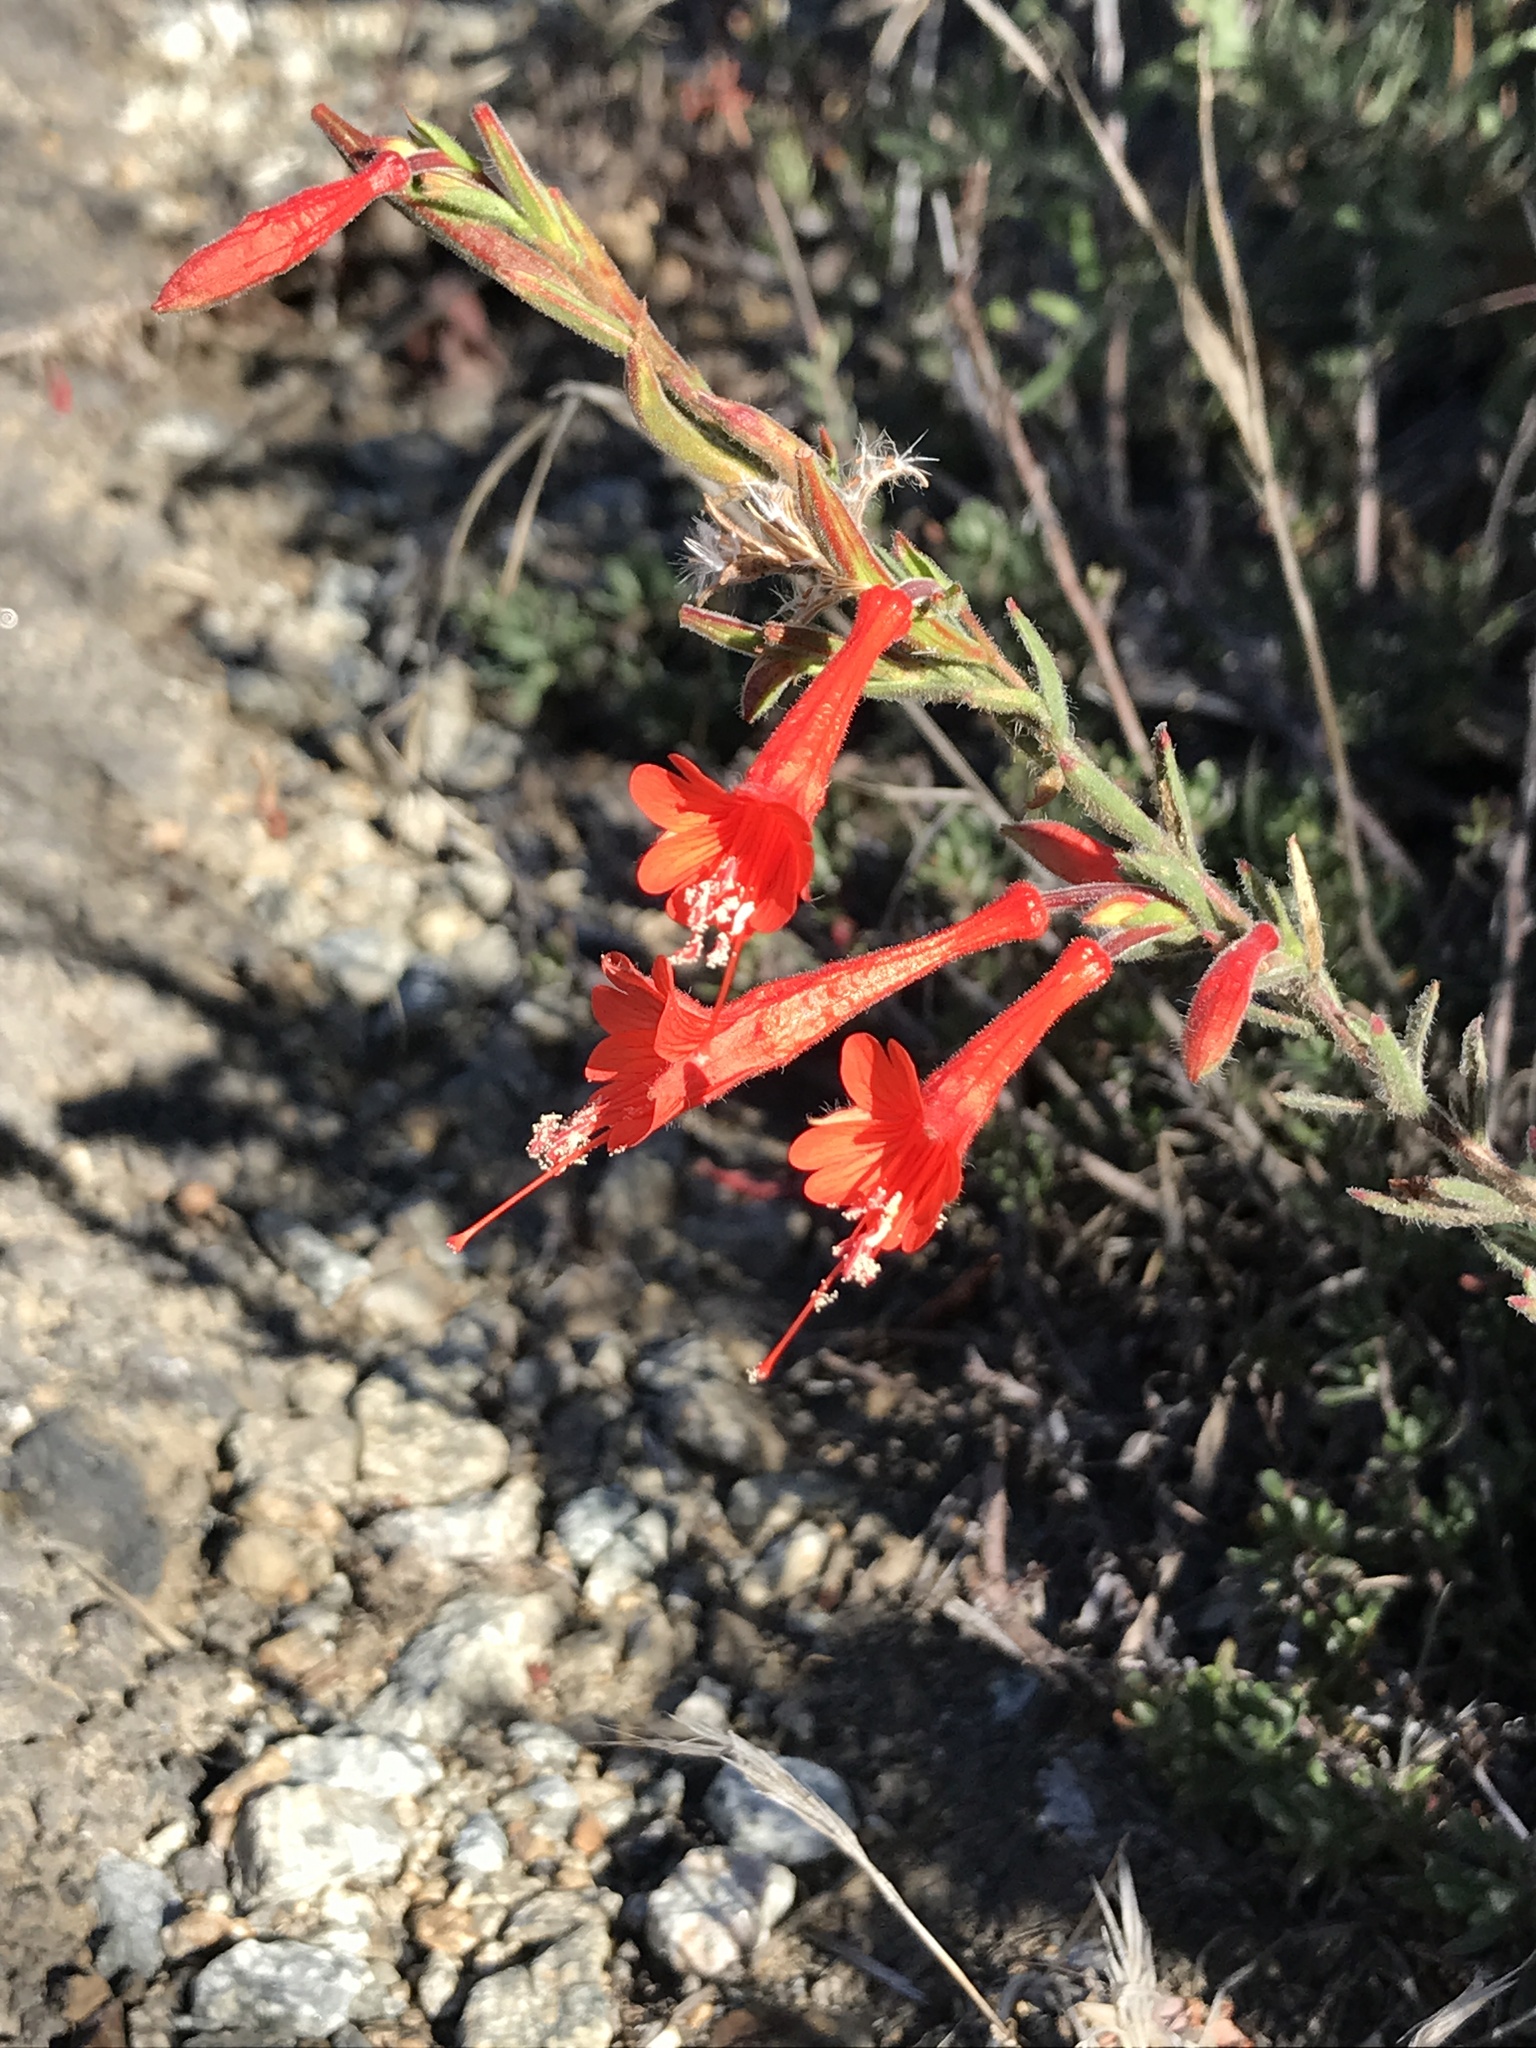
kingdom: Plantae
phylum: Tracheophyta
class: Magnoliopsida
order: Myrtales
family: Onagraceae
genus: Epilobium
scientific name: Epilobium canum
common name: California-fuchsia
